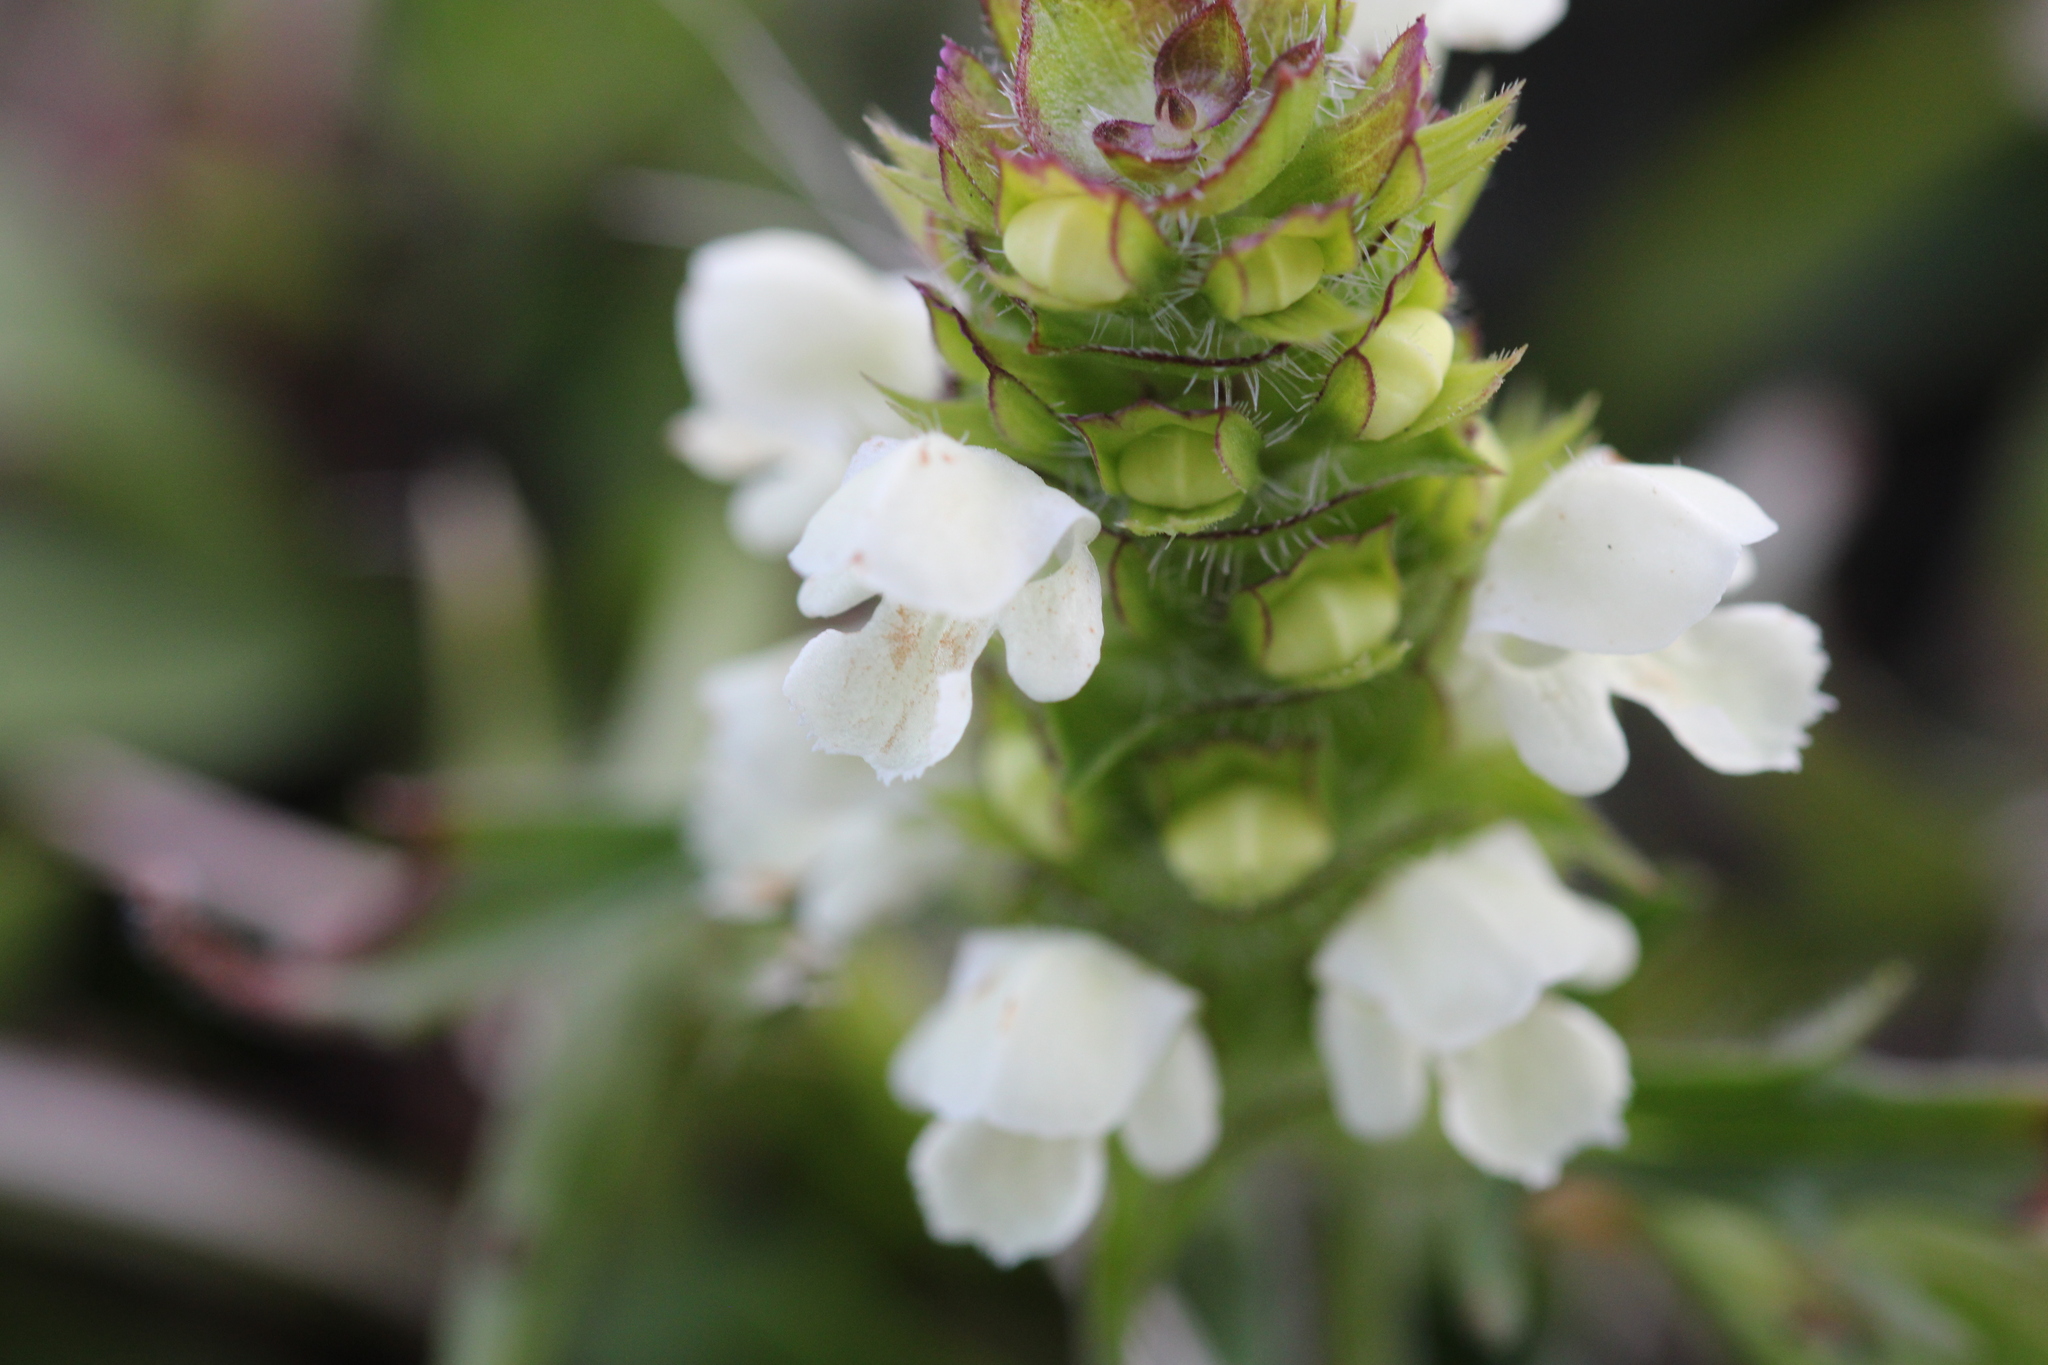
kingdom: Plantae
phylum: Tracheophyta
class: Magnoliopsida
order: Lamiales
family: Lamiaceae
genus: Prunella
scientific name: Prunella laciniata
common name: Cut-leaved selfheal
